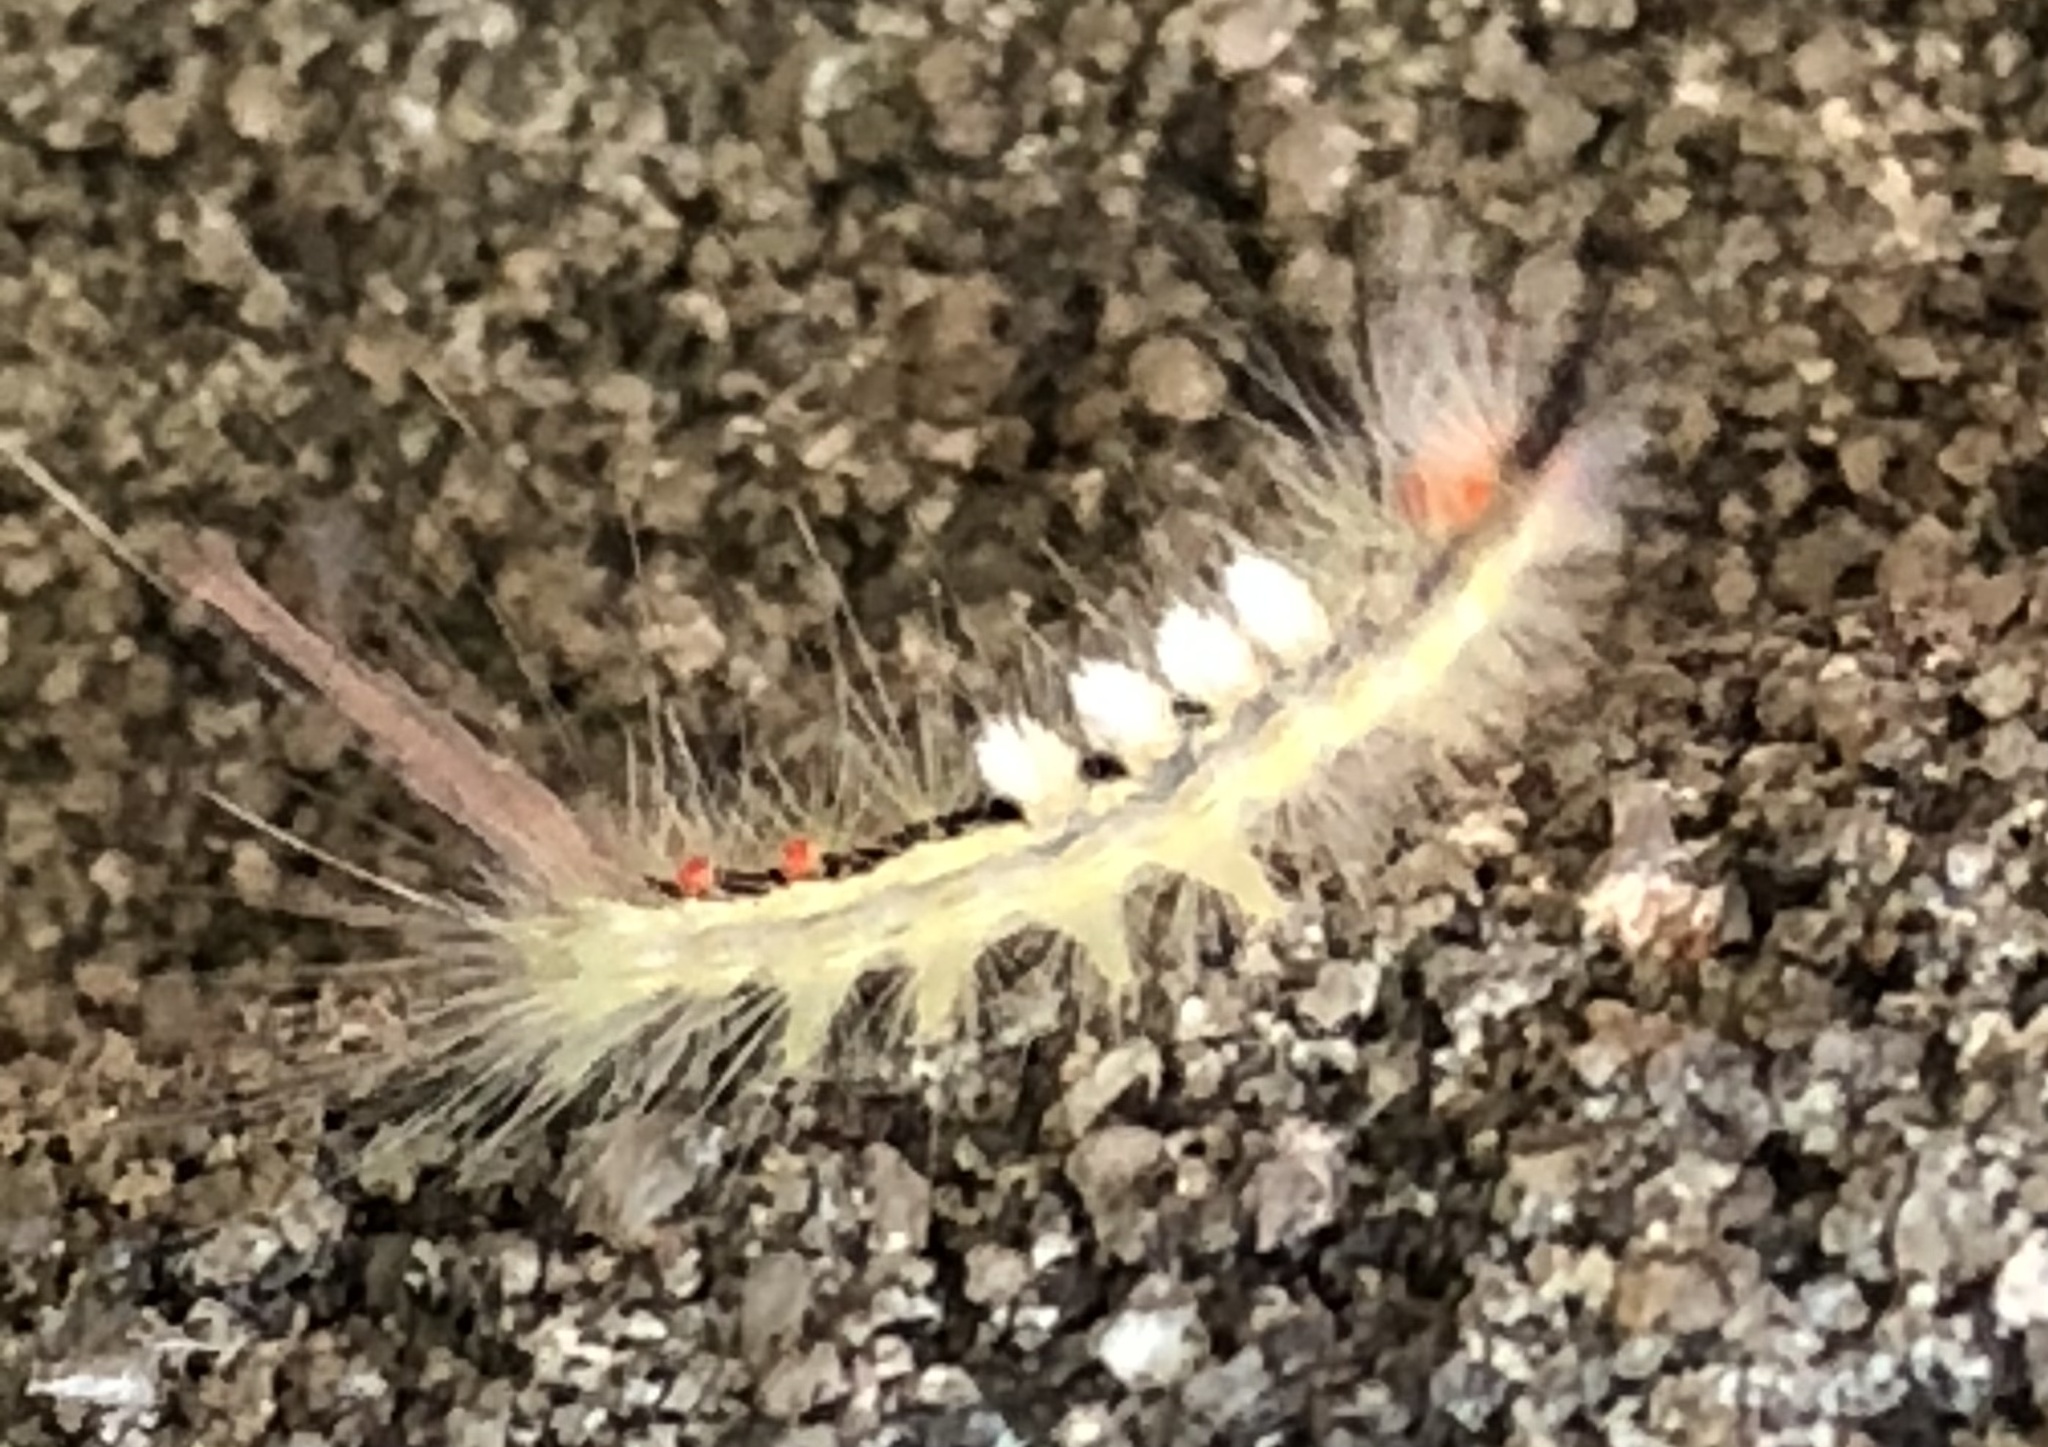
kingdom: Animalia
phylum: Arthropoda
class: Insecta
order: Lepidoptera
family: Erebidae
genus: Orgyia
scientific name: Orgyia leucostigma
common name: White-marked tussock moth
